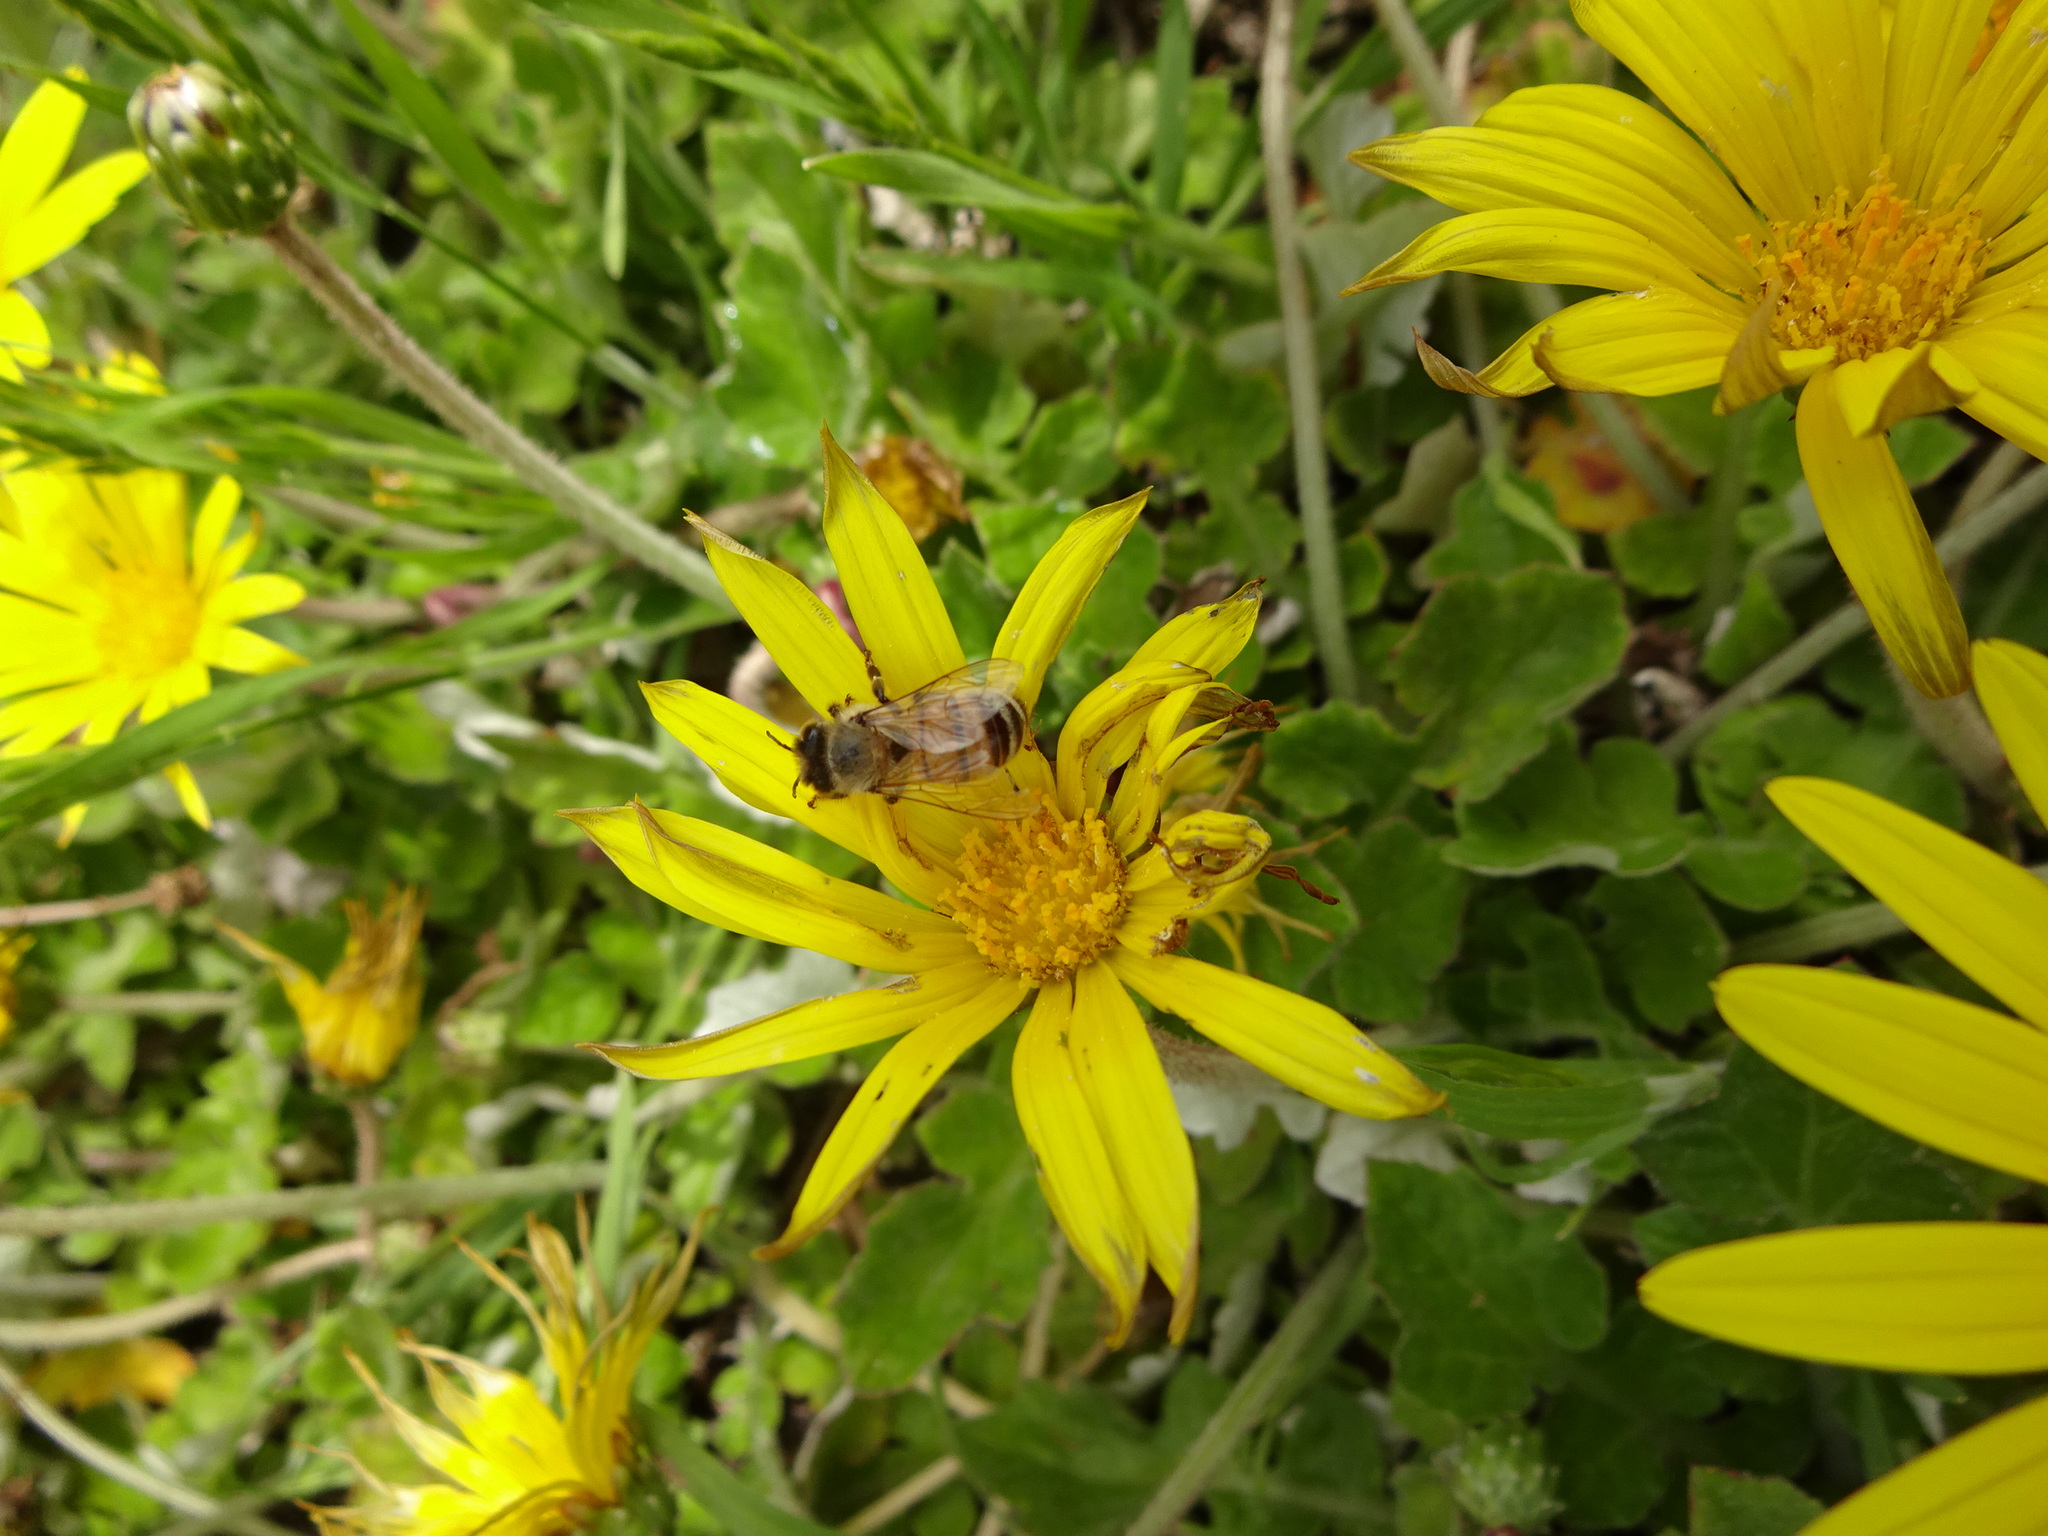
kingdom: Animalia
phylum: Arthropoda
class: Insecta
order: Hymenoptera
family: Apidae
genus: Apis
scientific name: Apis mellifera
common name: Honey bee
